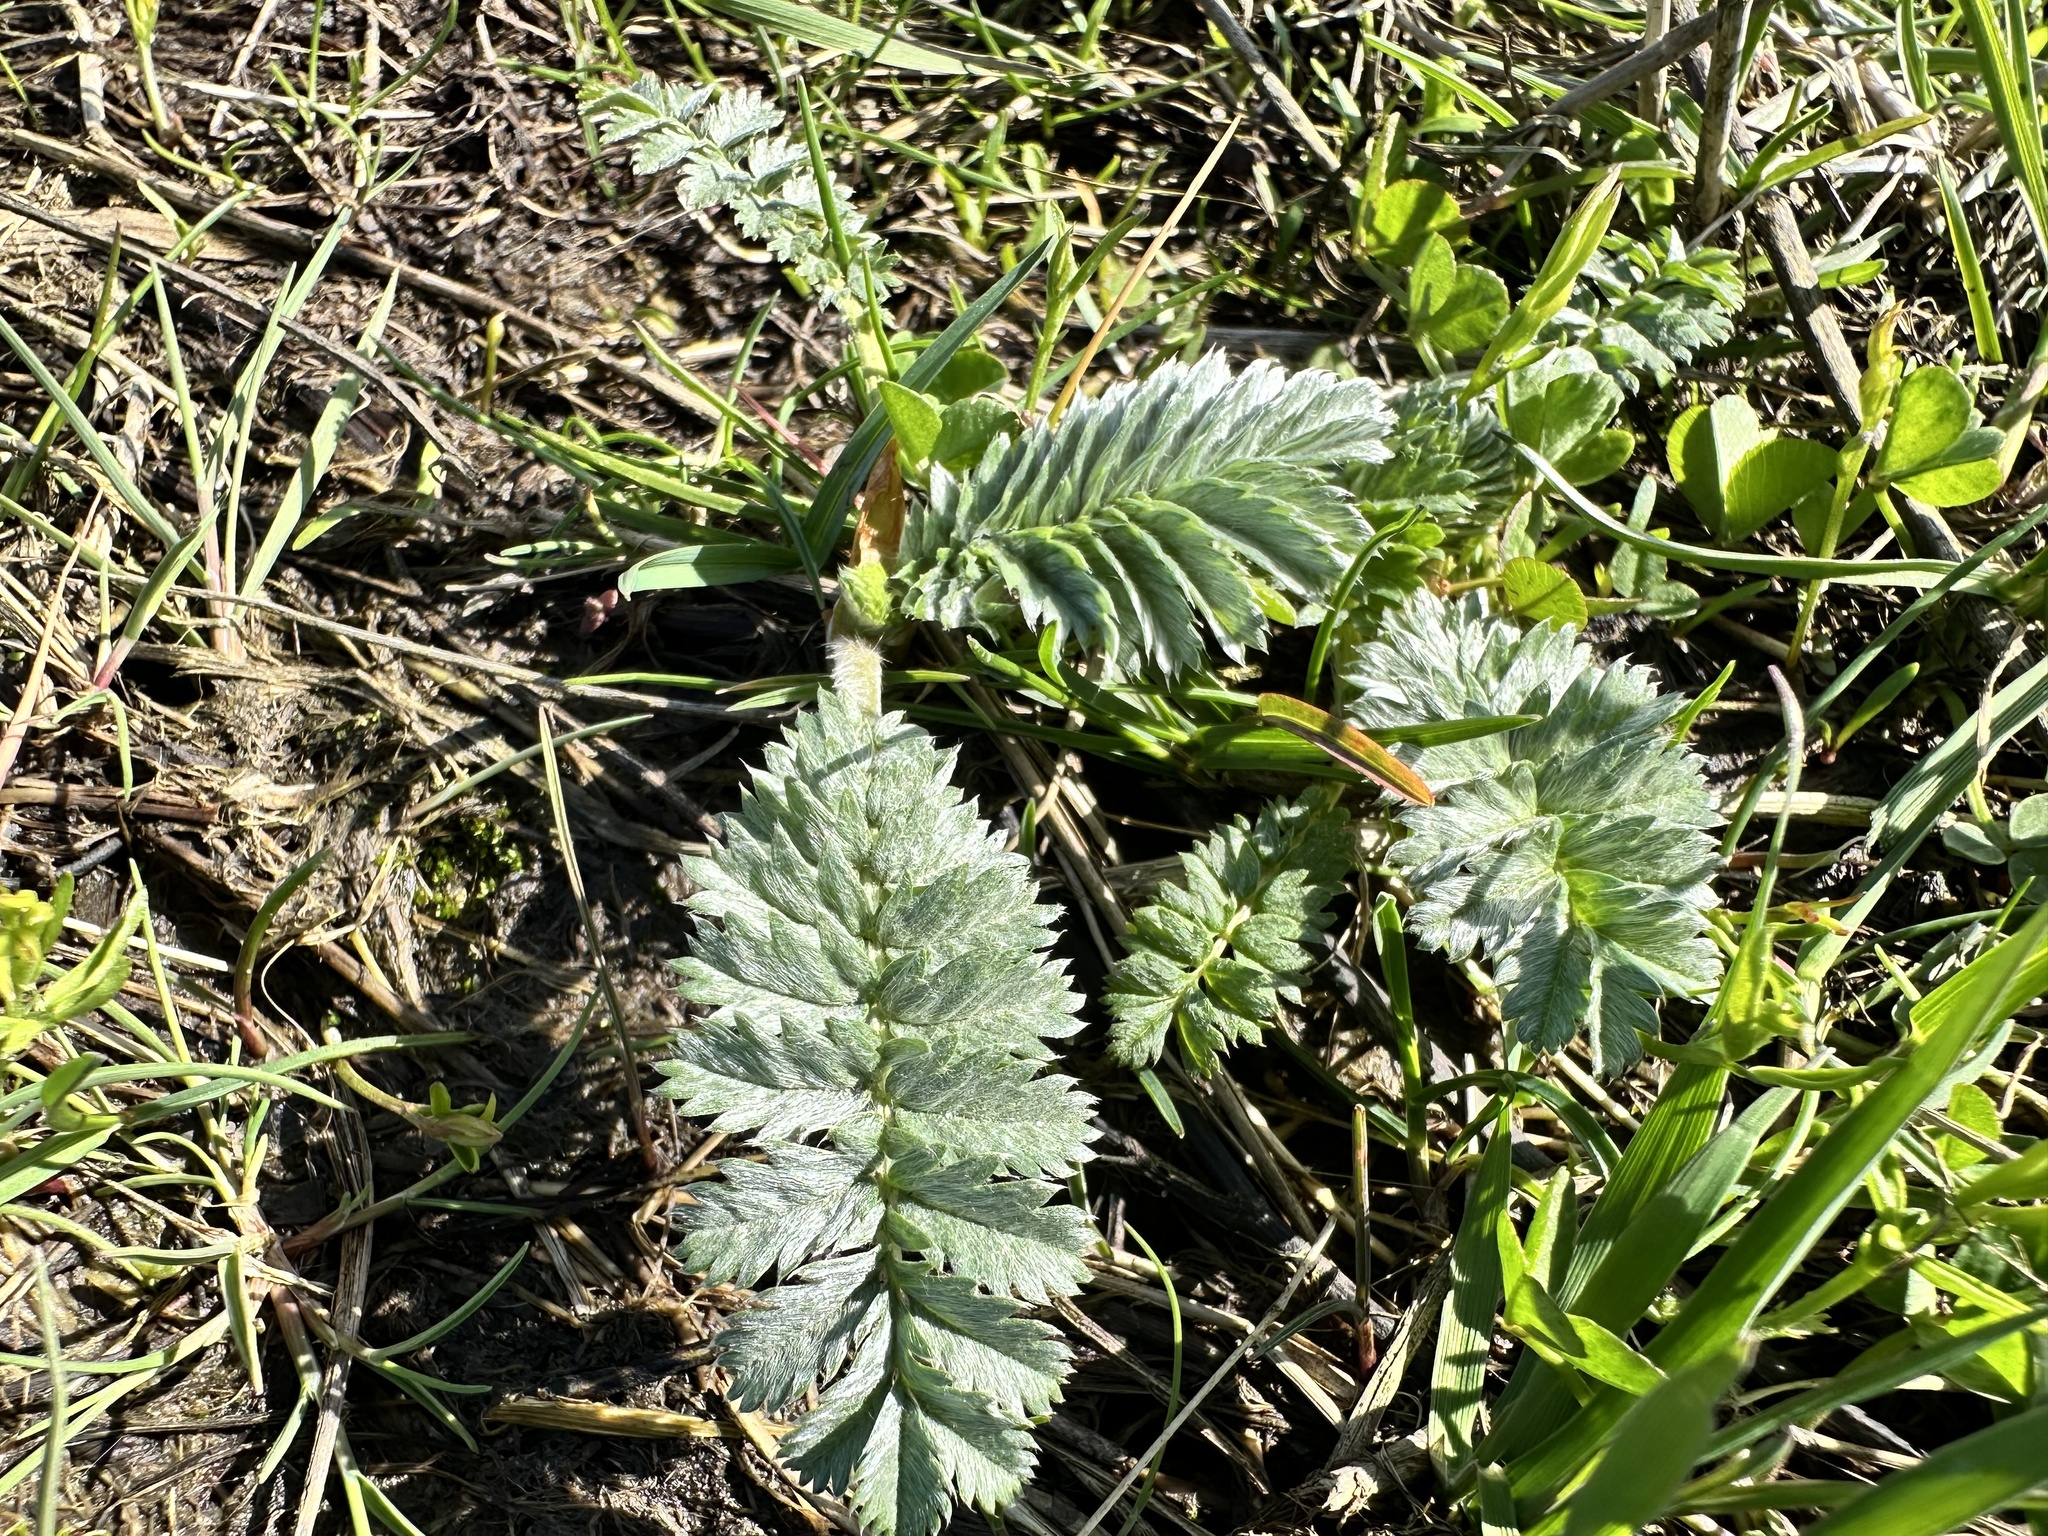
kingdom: Plantae
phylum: Tracheophyta
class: Magnoliopsida
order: Rosales
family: Rosaceae
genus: Argentina
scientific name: Argentina anserina
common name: Common silverweed
